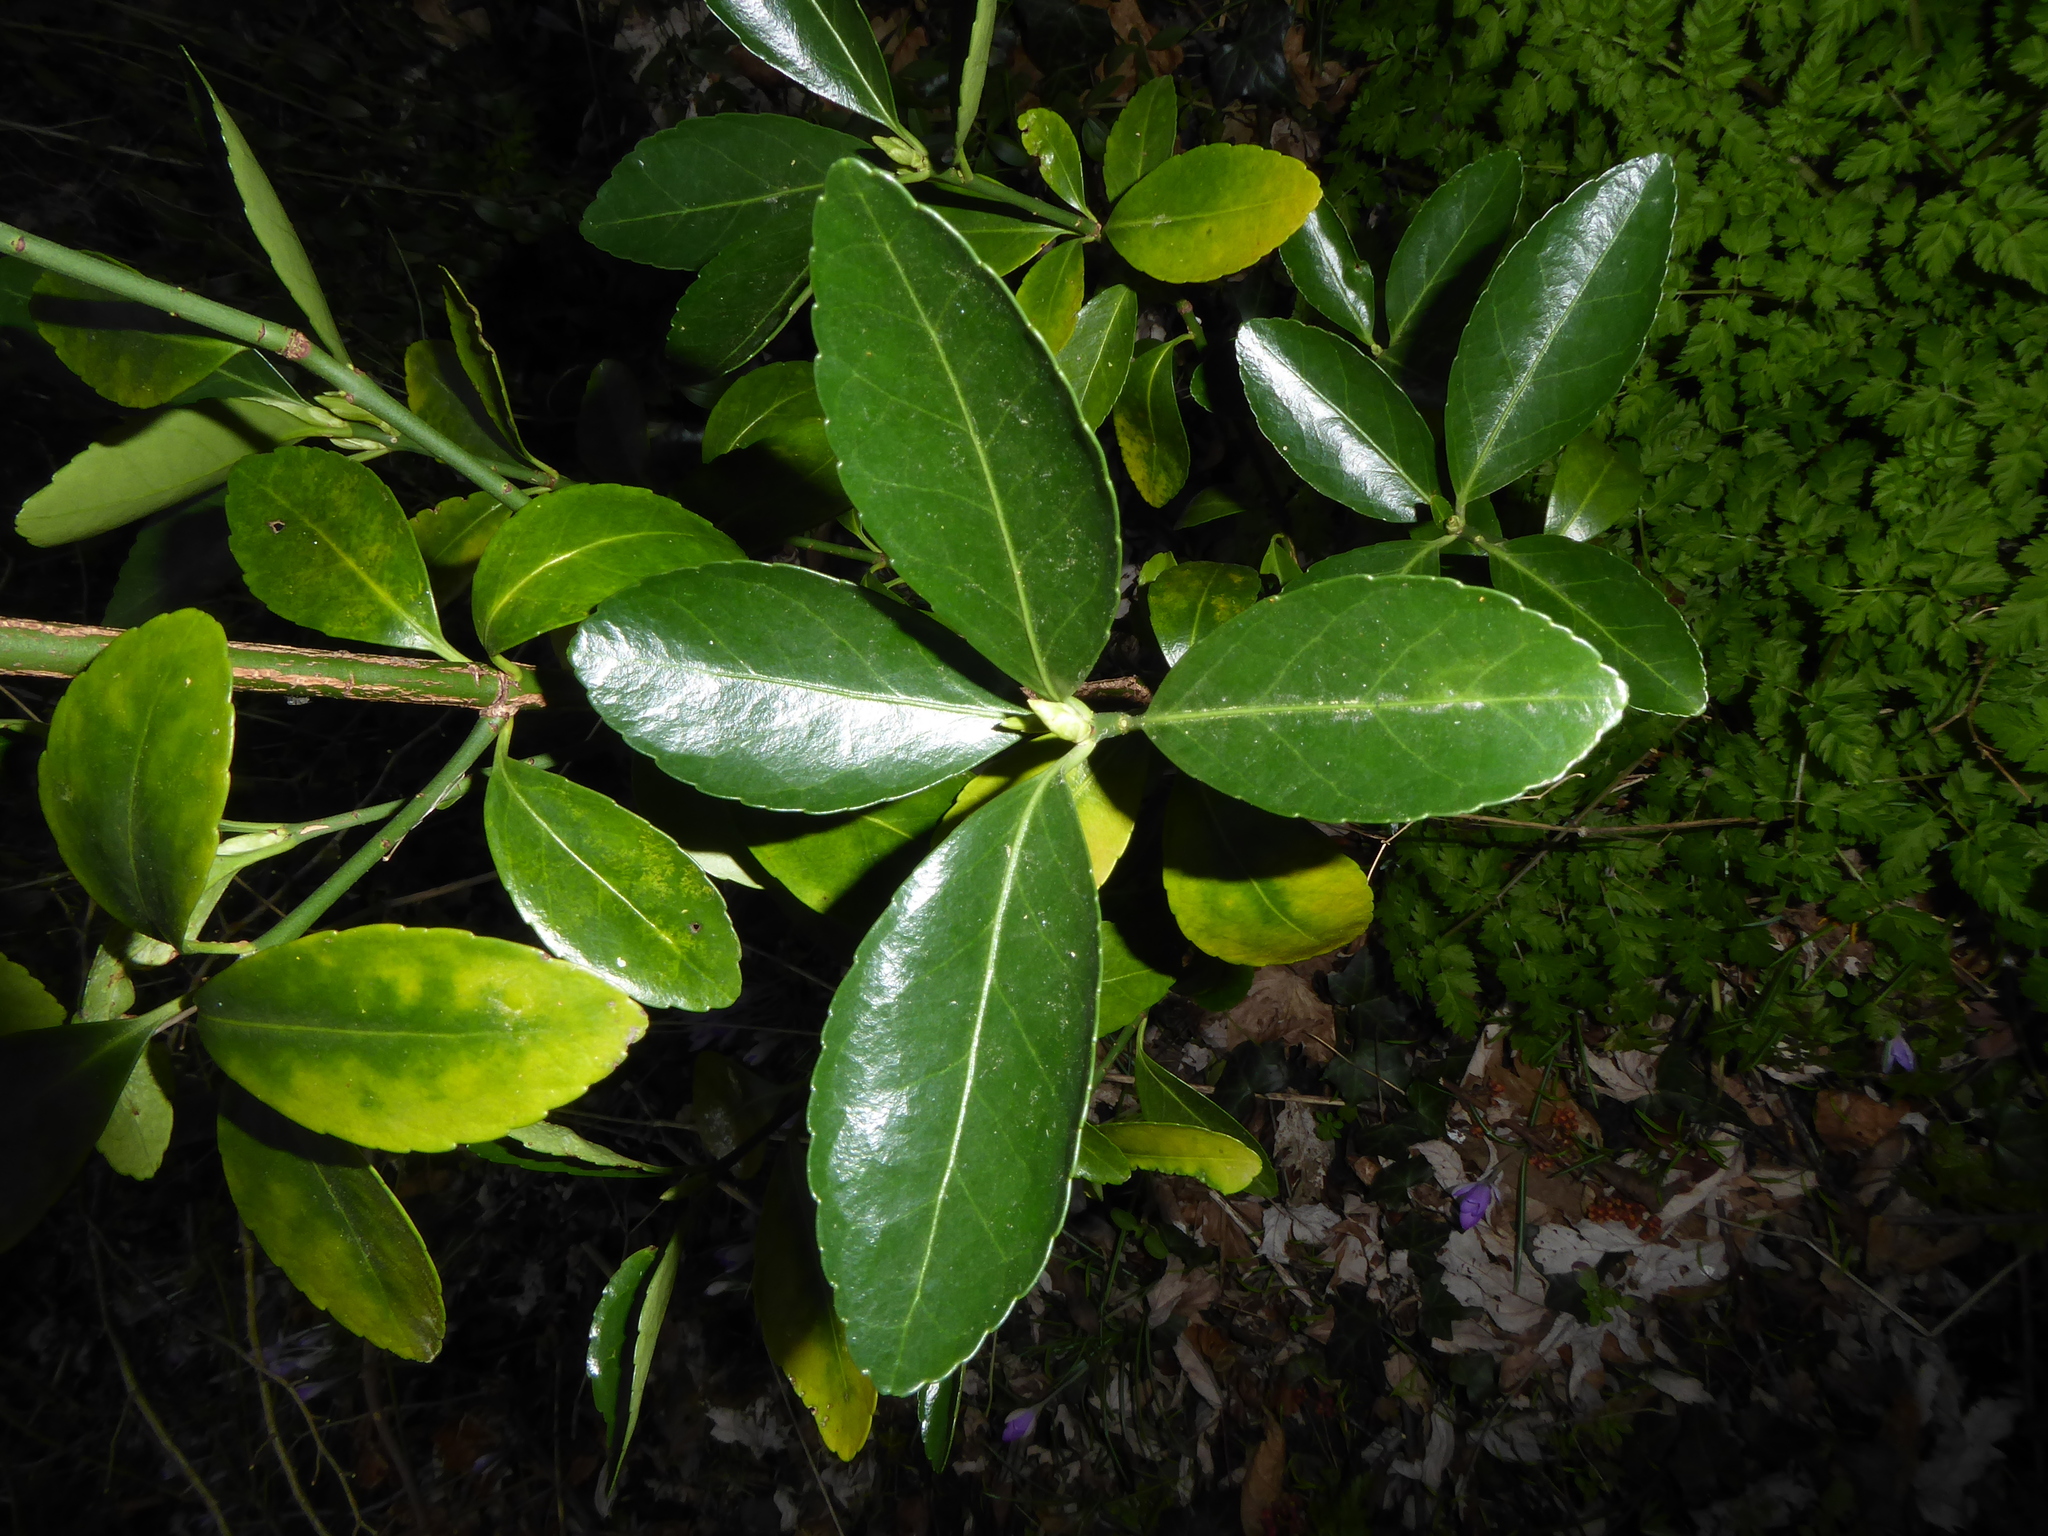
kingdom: Plantae
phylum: Tracheophyta
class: Magnoliopsida
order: Celastrales
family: Celastraceae
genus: Euonymus
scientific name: Euonymus japonicus
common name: Japanese spindletree
